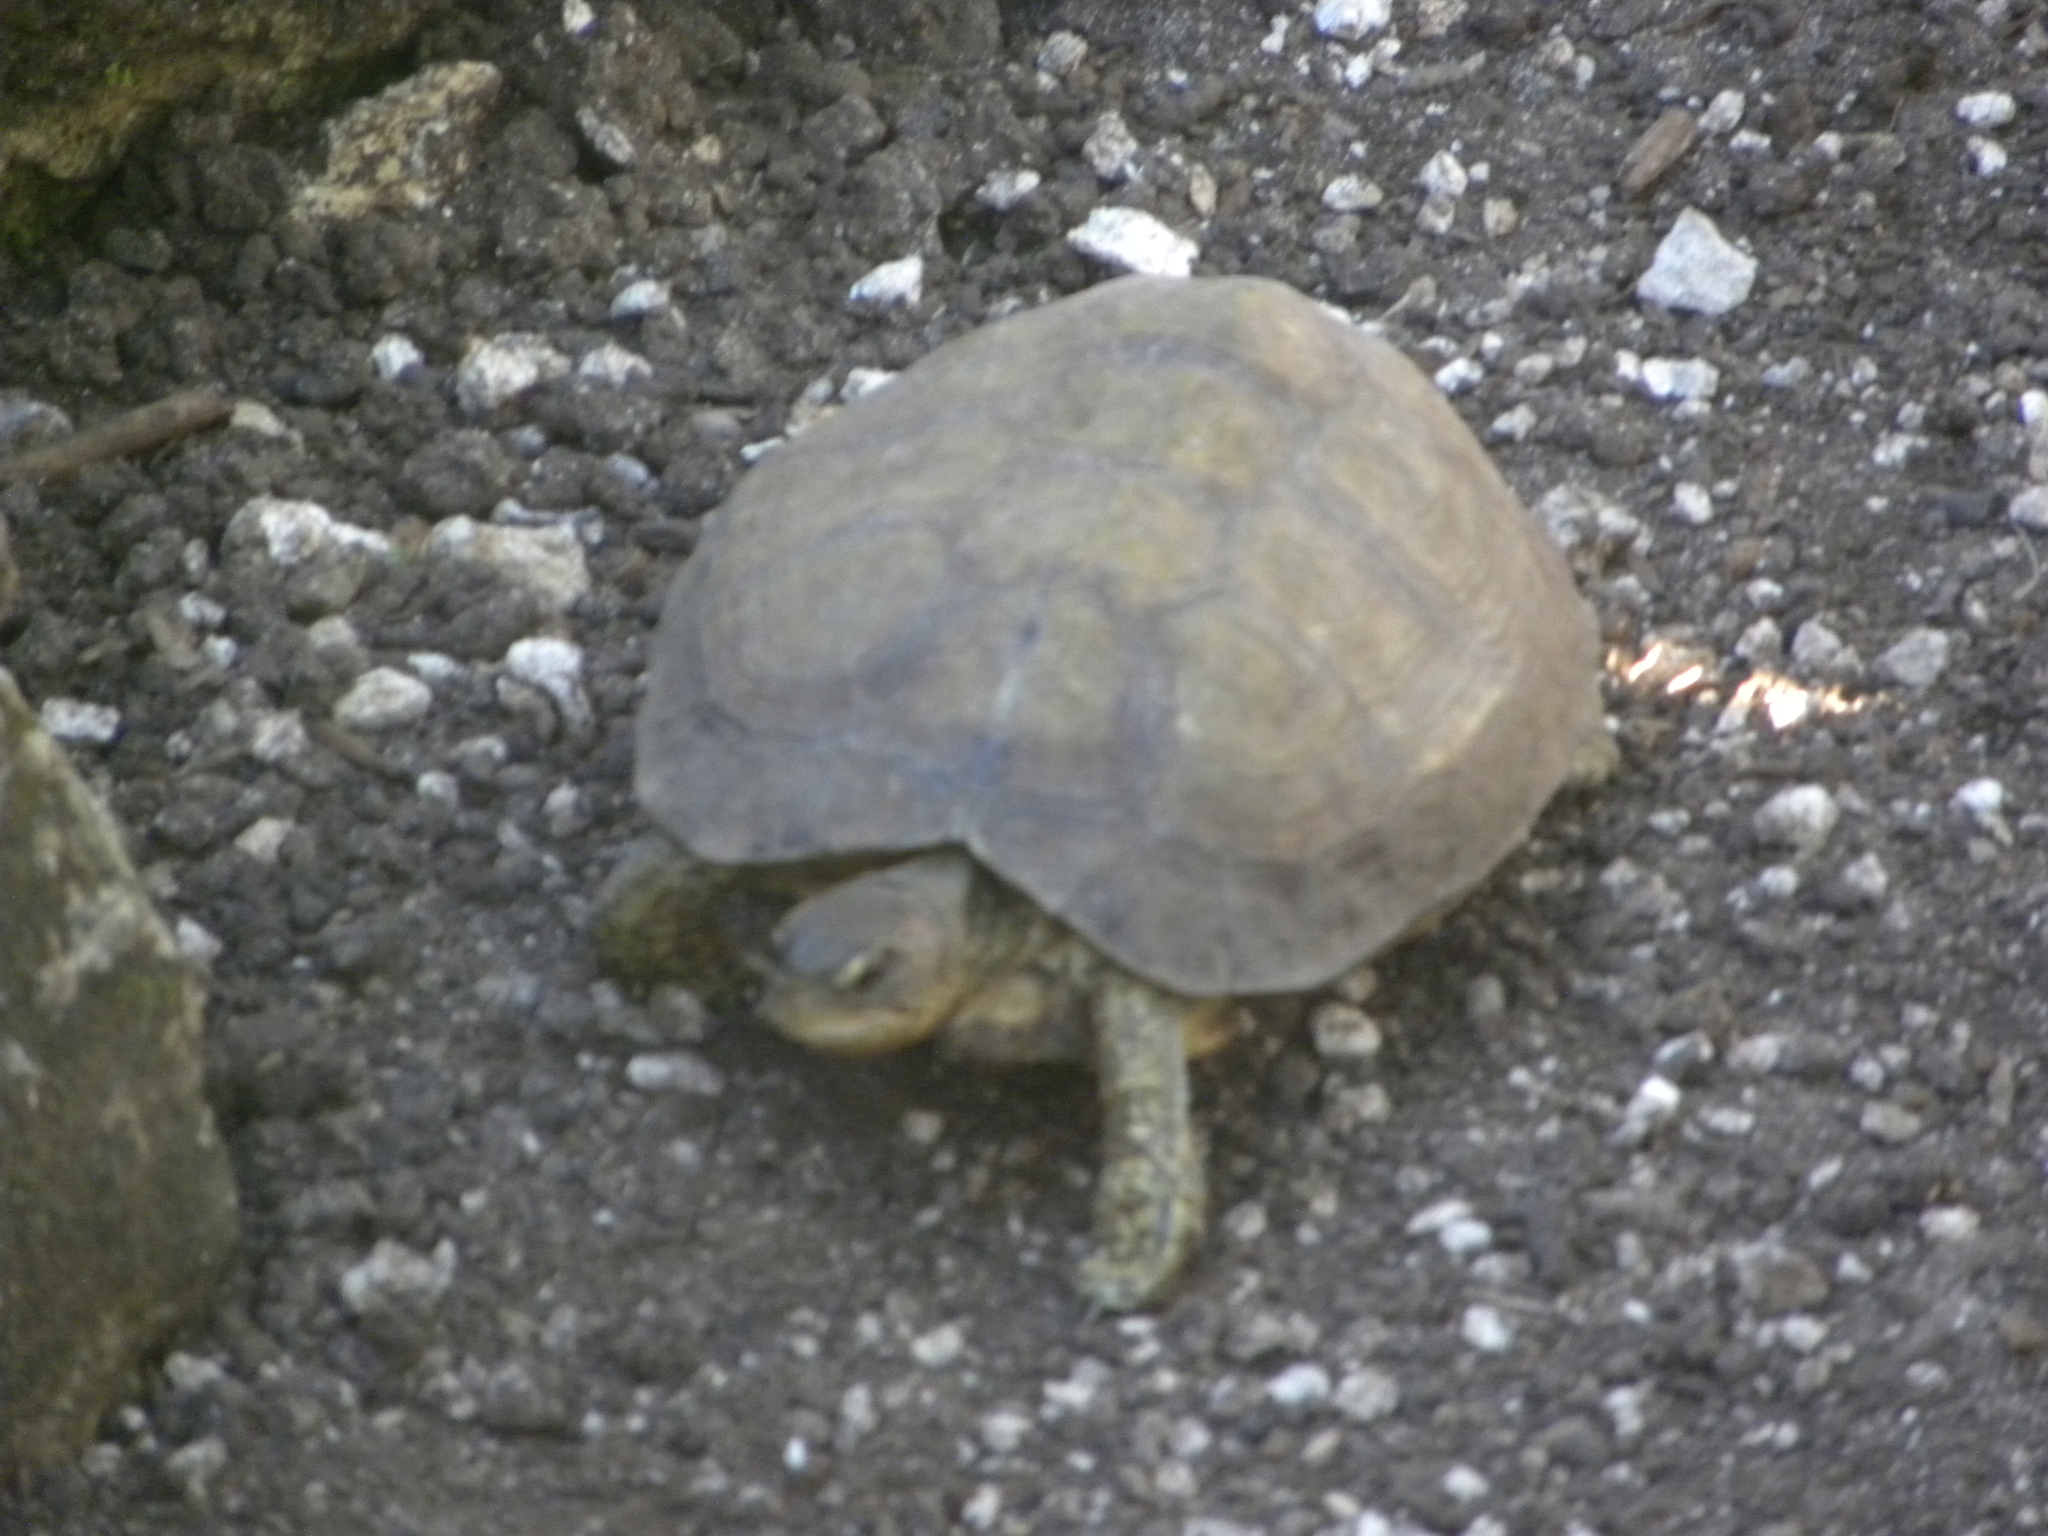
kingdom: Animalia
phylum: Chordata
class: Testudines
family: Geoemydidae
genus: Rhinoclemmys
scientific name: Rhinoclemmys areolata
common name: Furrowed wood turtle
